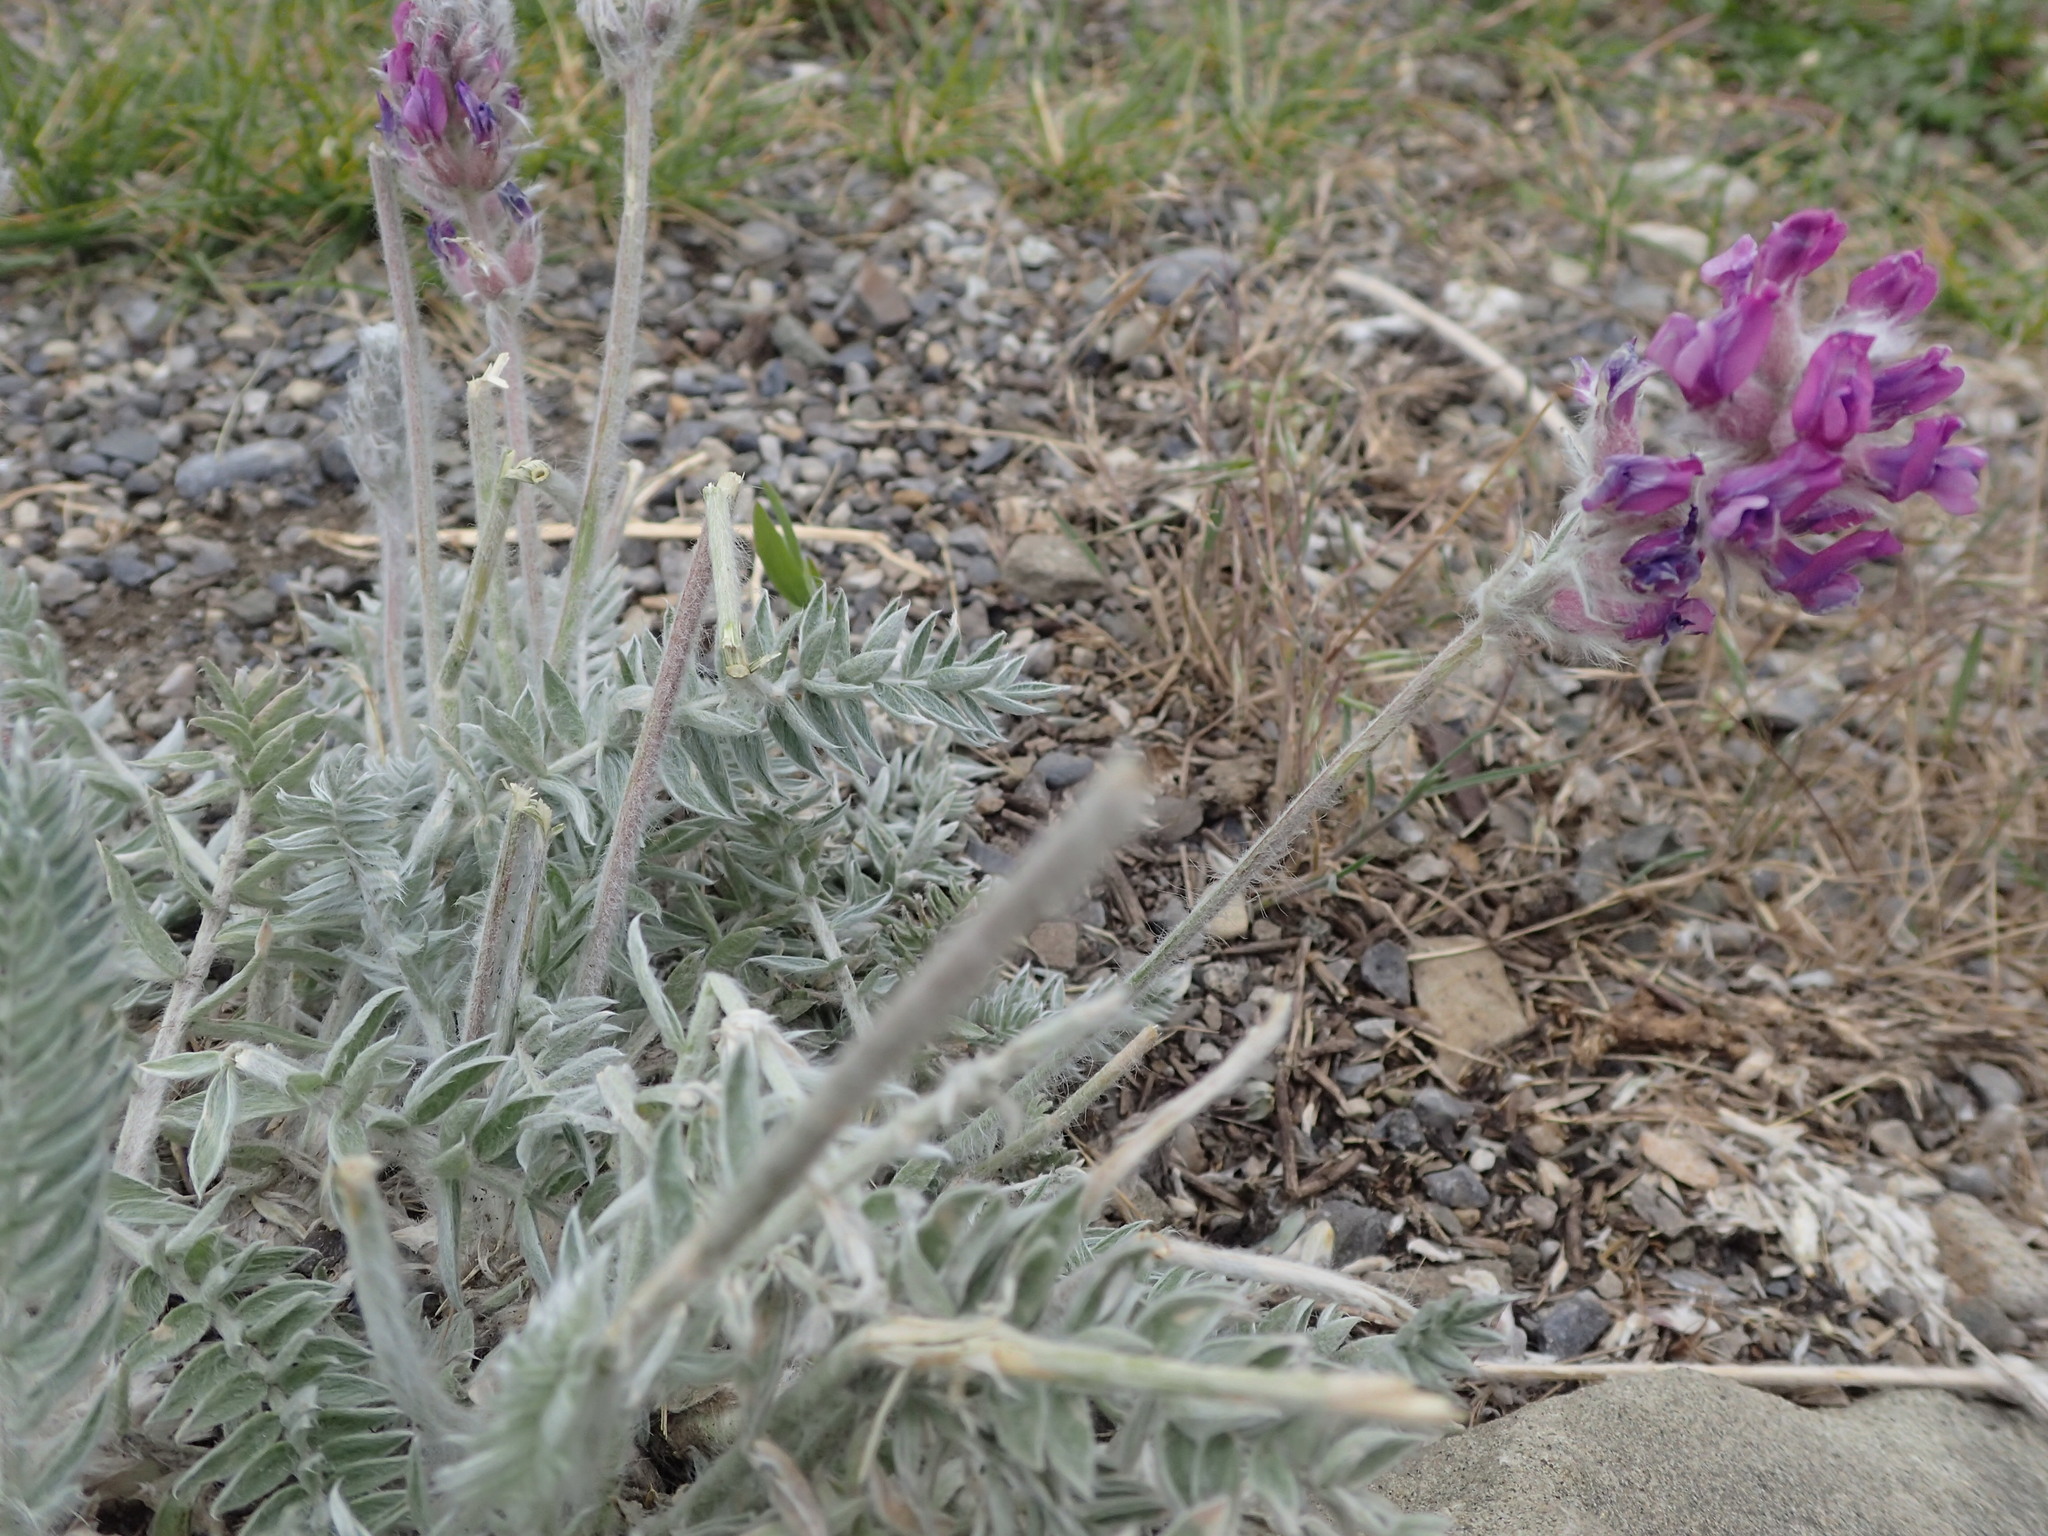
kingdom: Plantae
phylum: Tracheophyta
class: Magnoliopsida
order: Fabales
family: Fabaceae
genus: Oxytropis
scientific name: Oxytropis splendens
